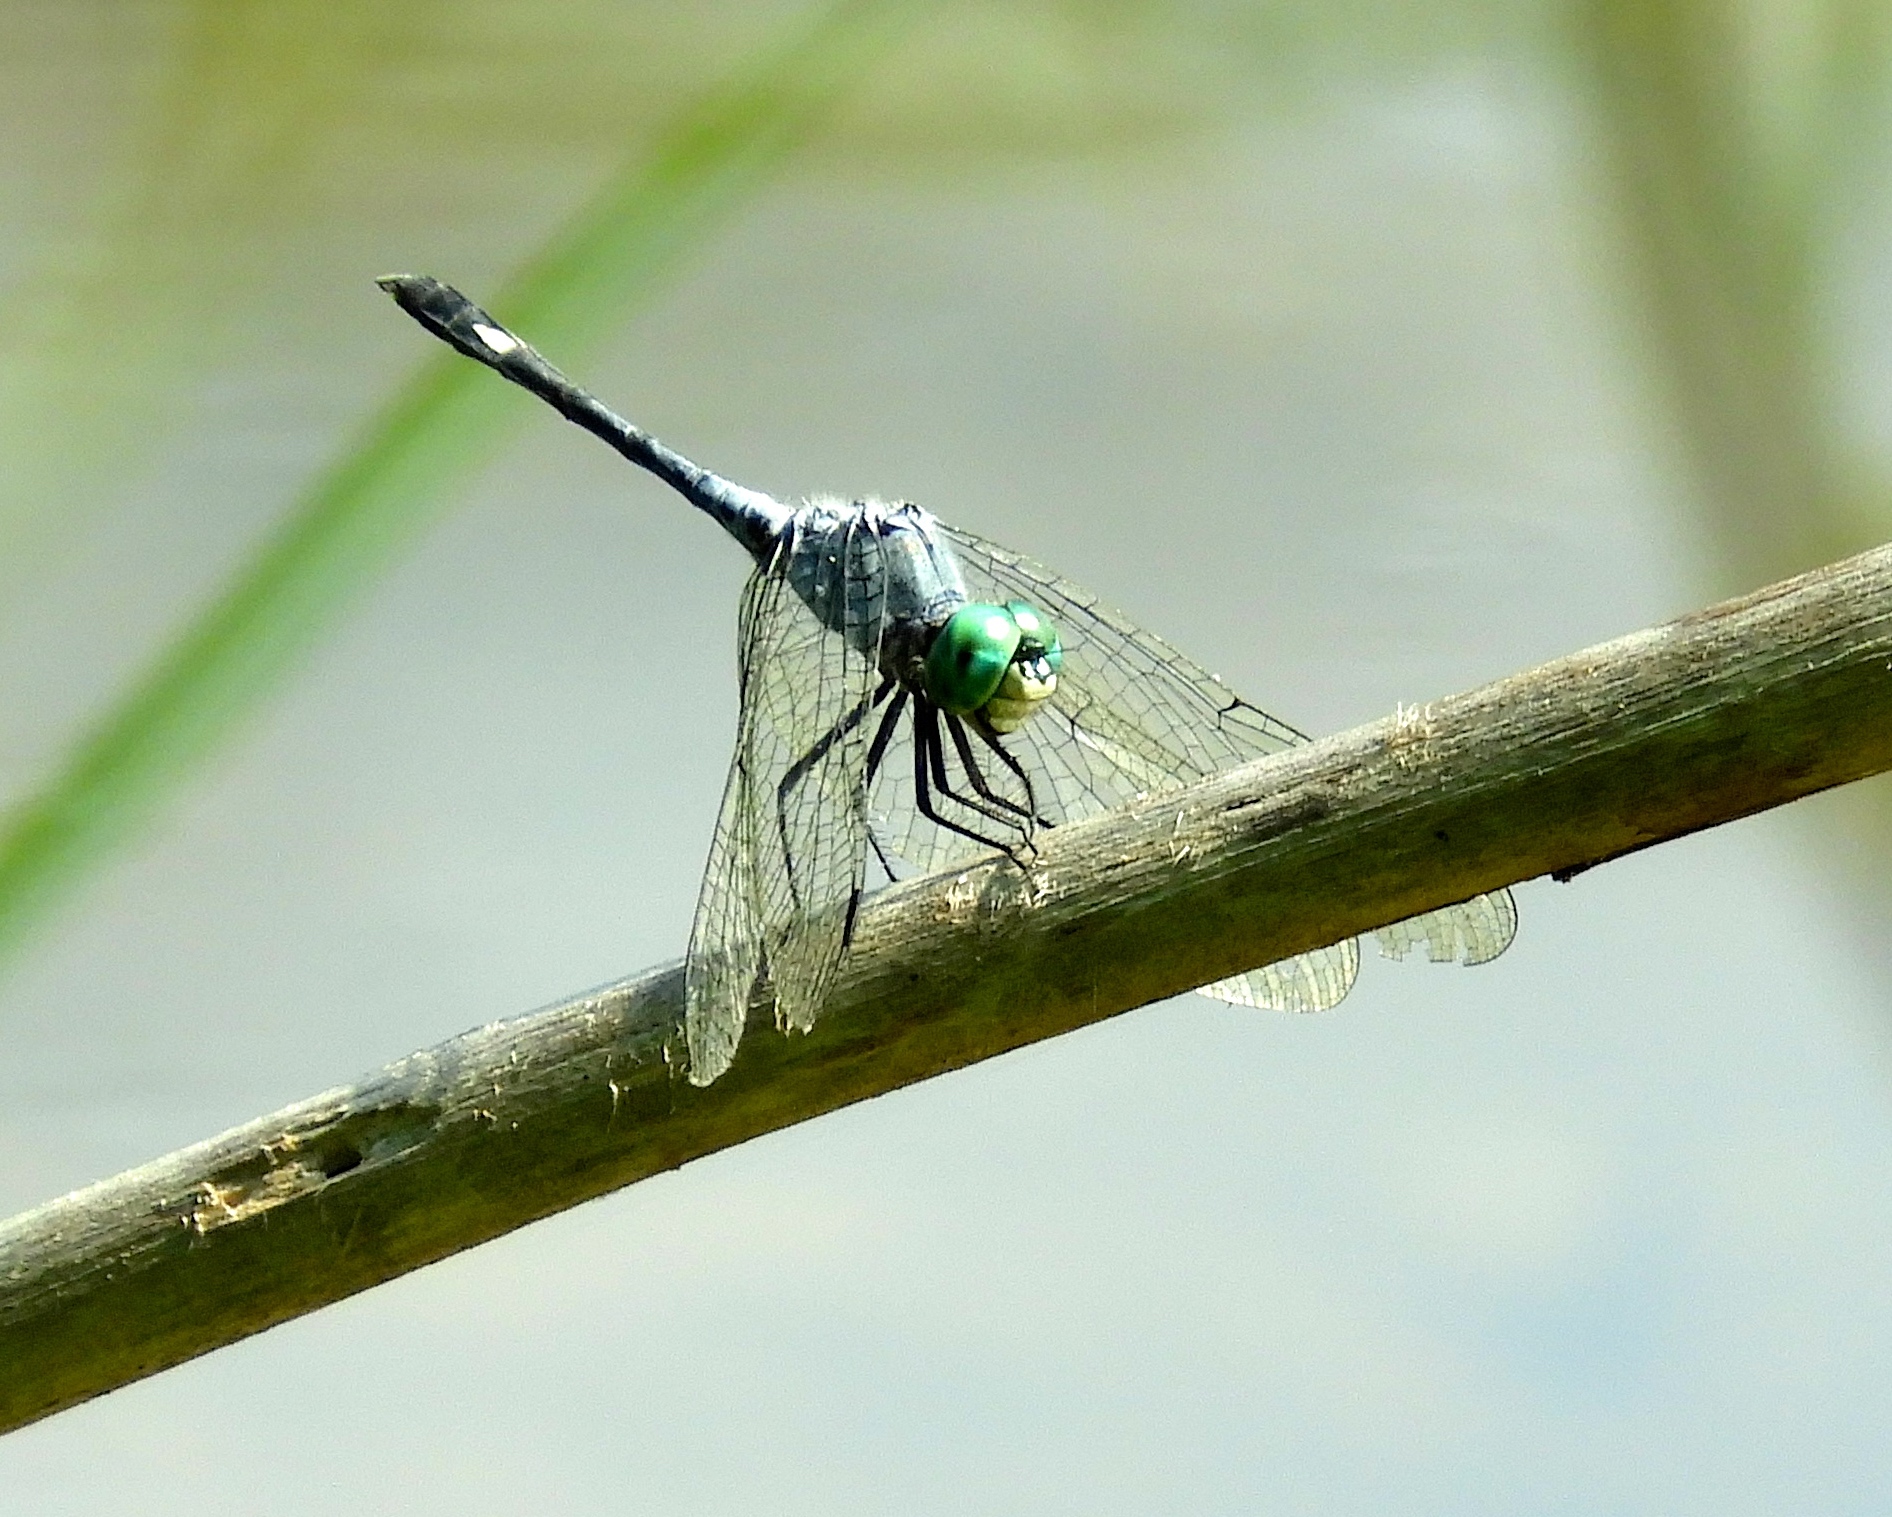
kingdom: Animalia
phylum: Arthropoda
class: Insecta
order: Odonata
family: Libellulidae
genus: Micrathyria
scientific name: Micrathyria aequalis
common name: Spot-tailed dasher
